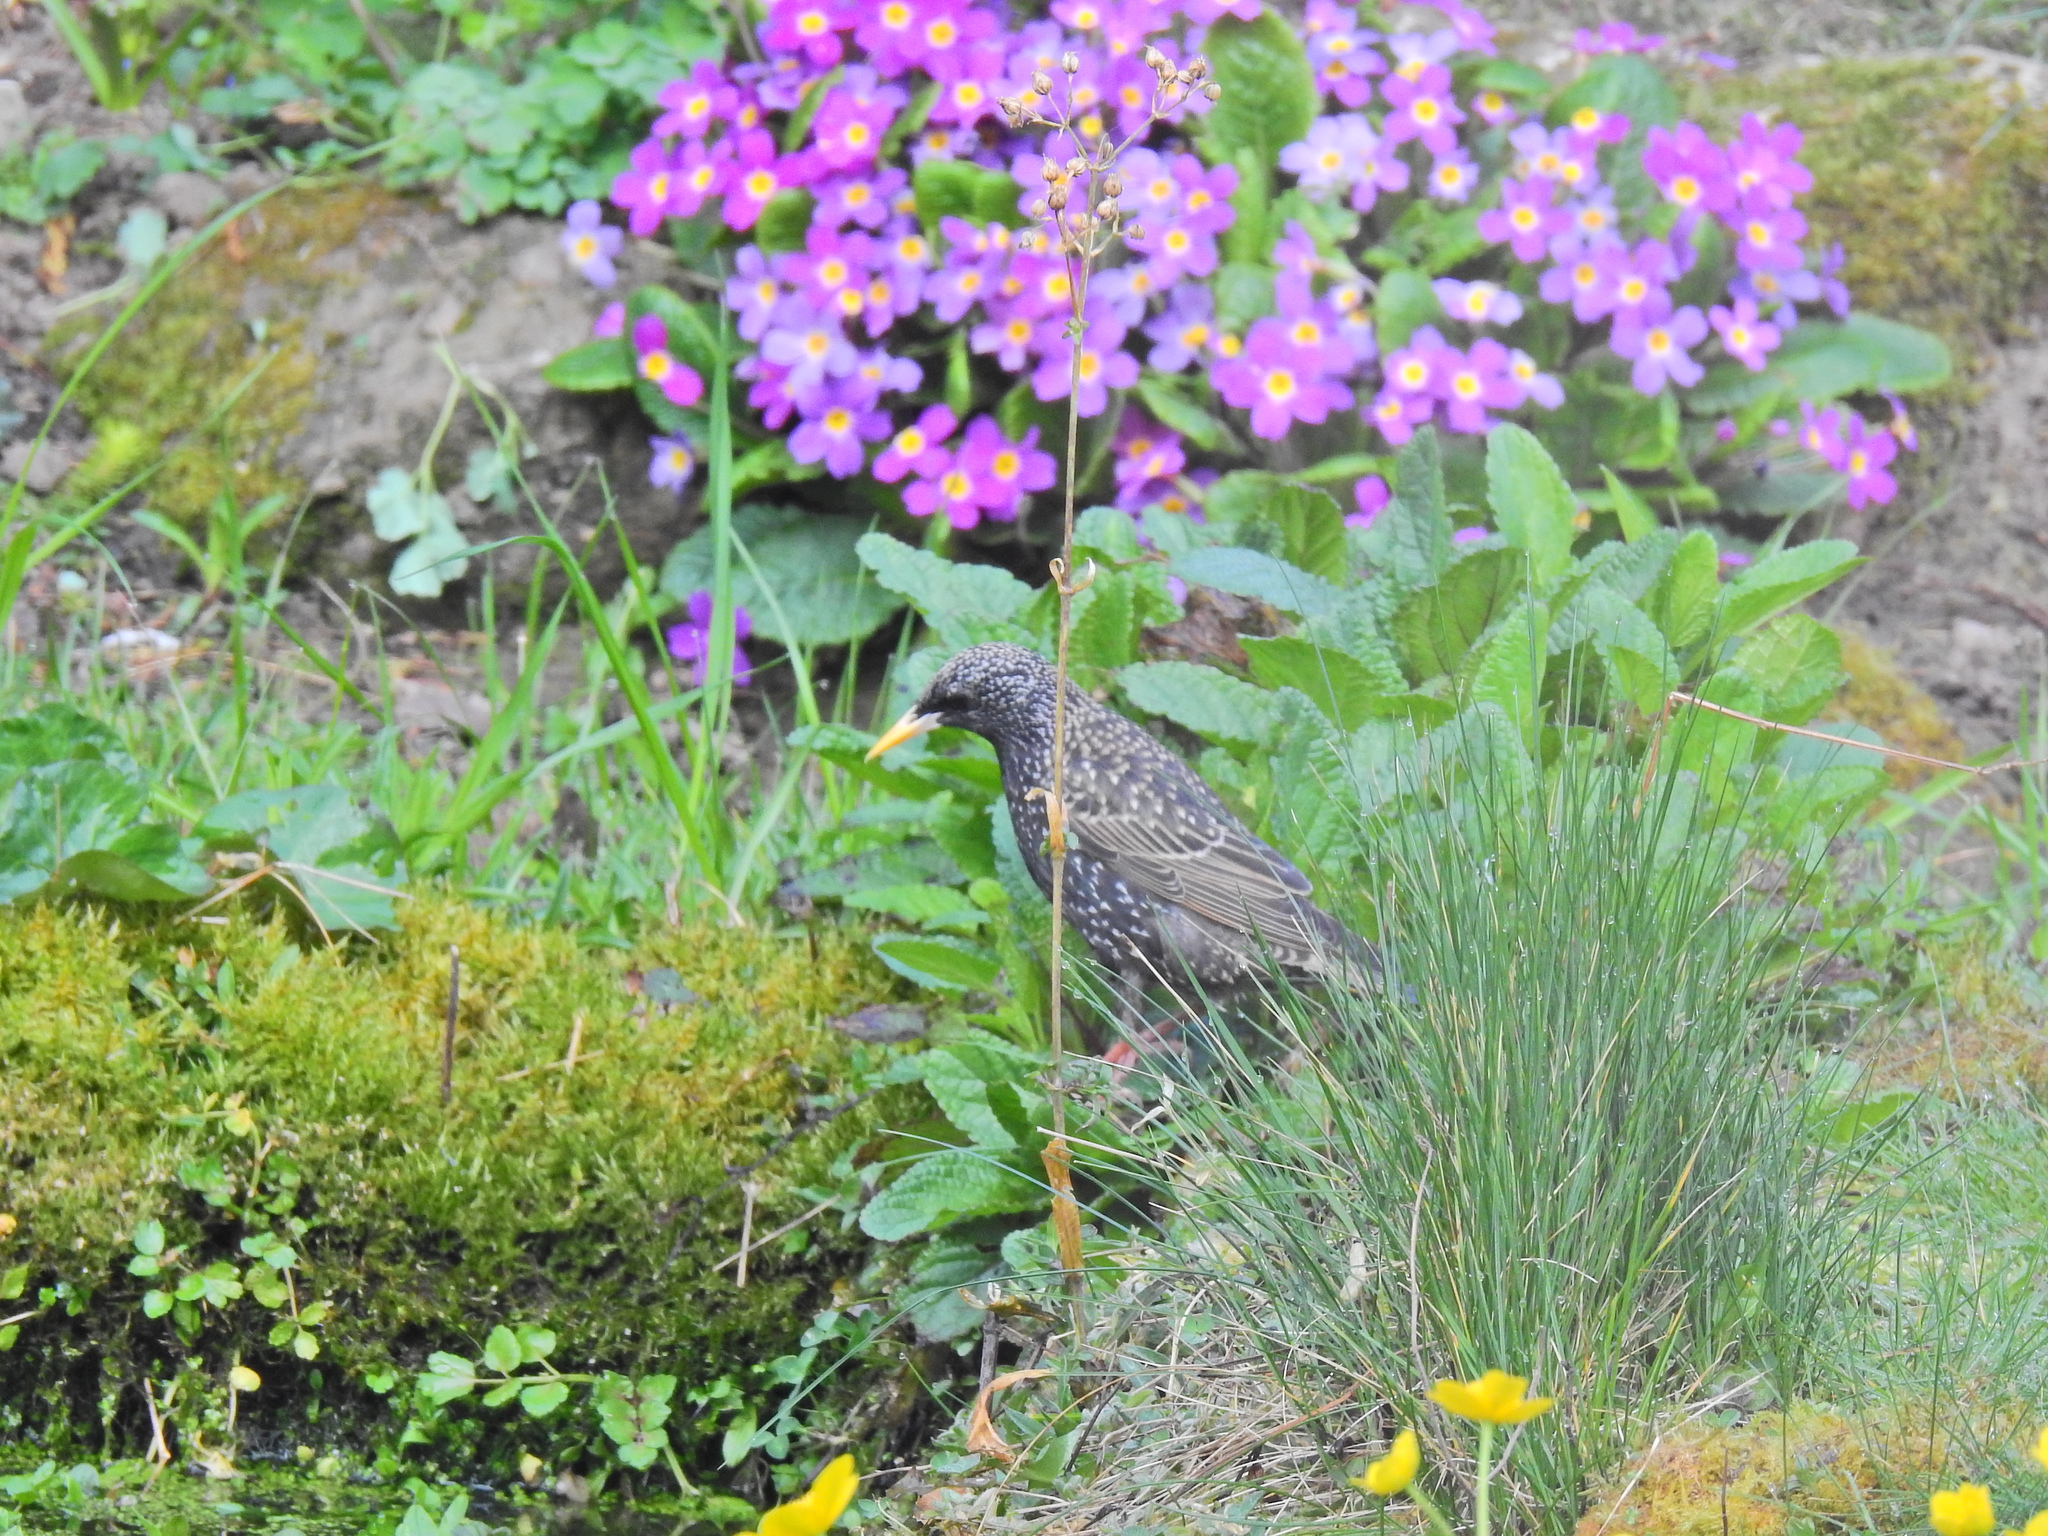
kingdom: Animalia
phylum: Chordata
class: Aves
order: Passeriformes
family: Sturnidae
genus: Sturnus
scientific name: Sturnus vulgaris
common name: Common starling
